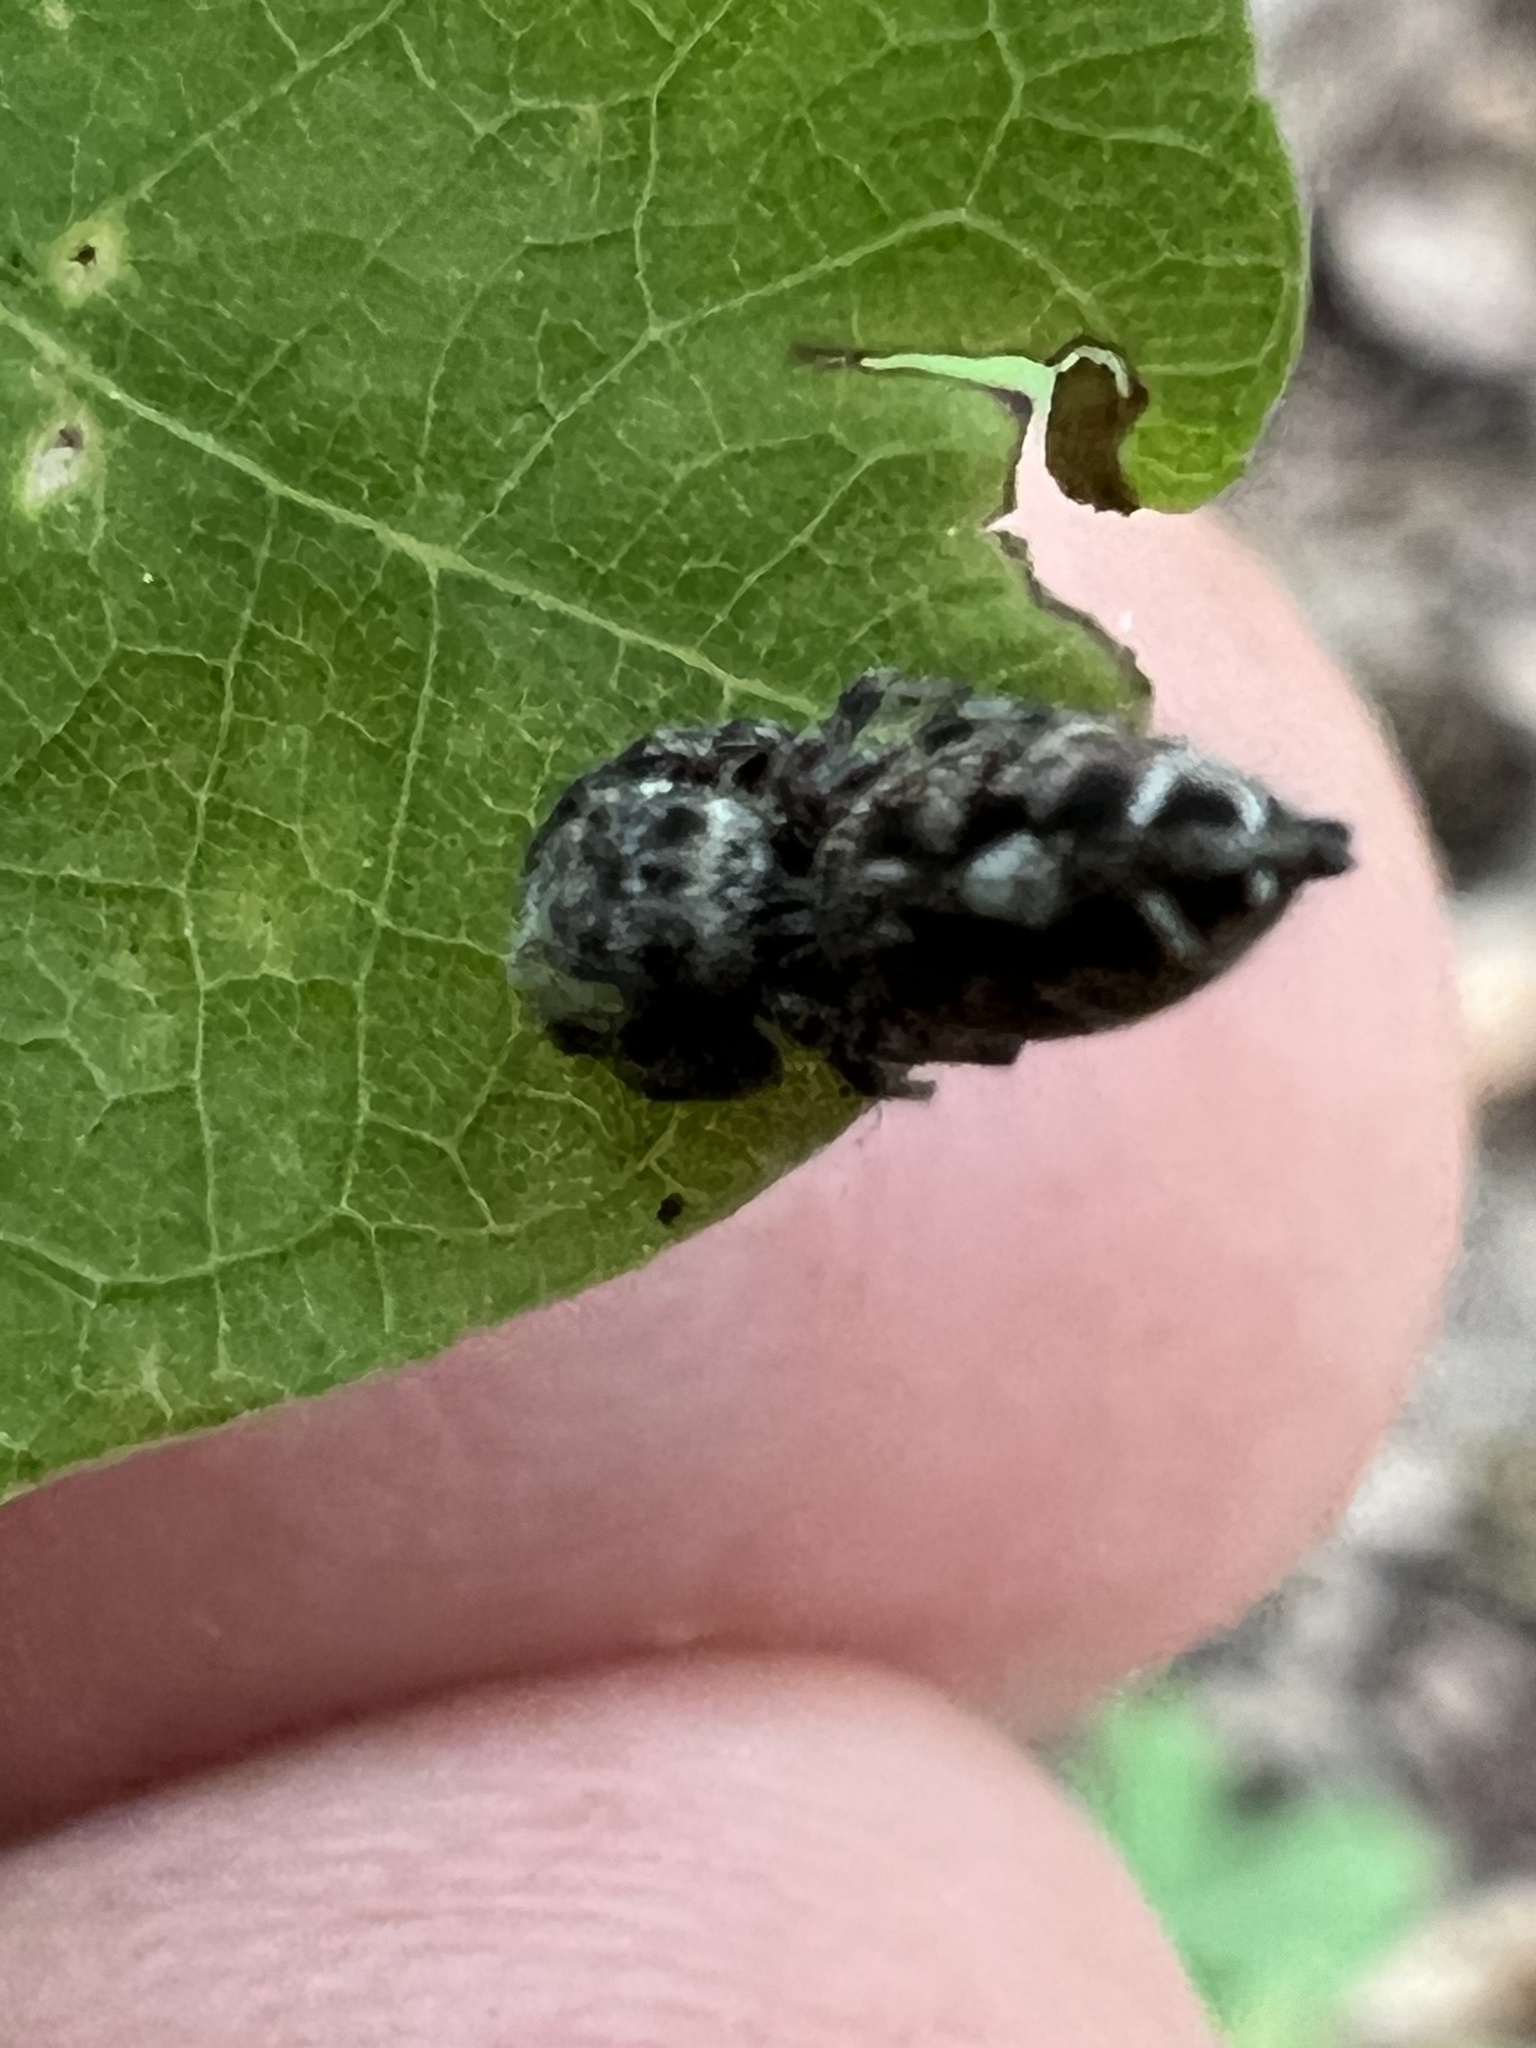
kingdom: Animalia
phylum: Arthropoda
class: Arachnida
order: Araneae
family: Salticidae
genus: Phidippus
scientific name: Phidippus putnami
